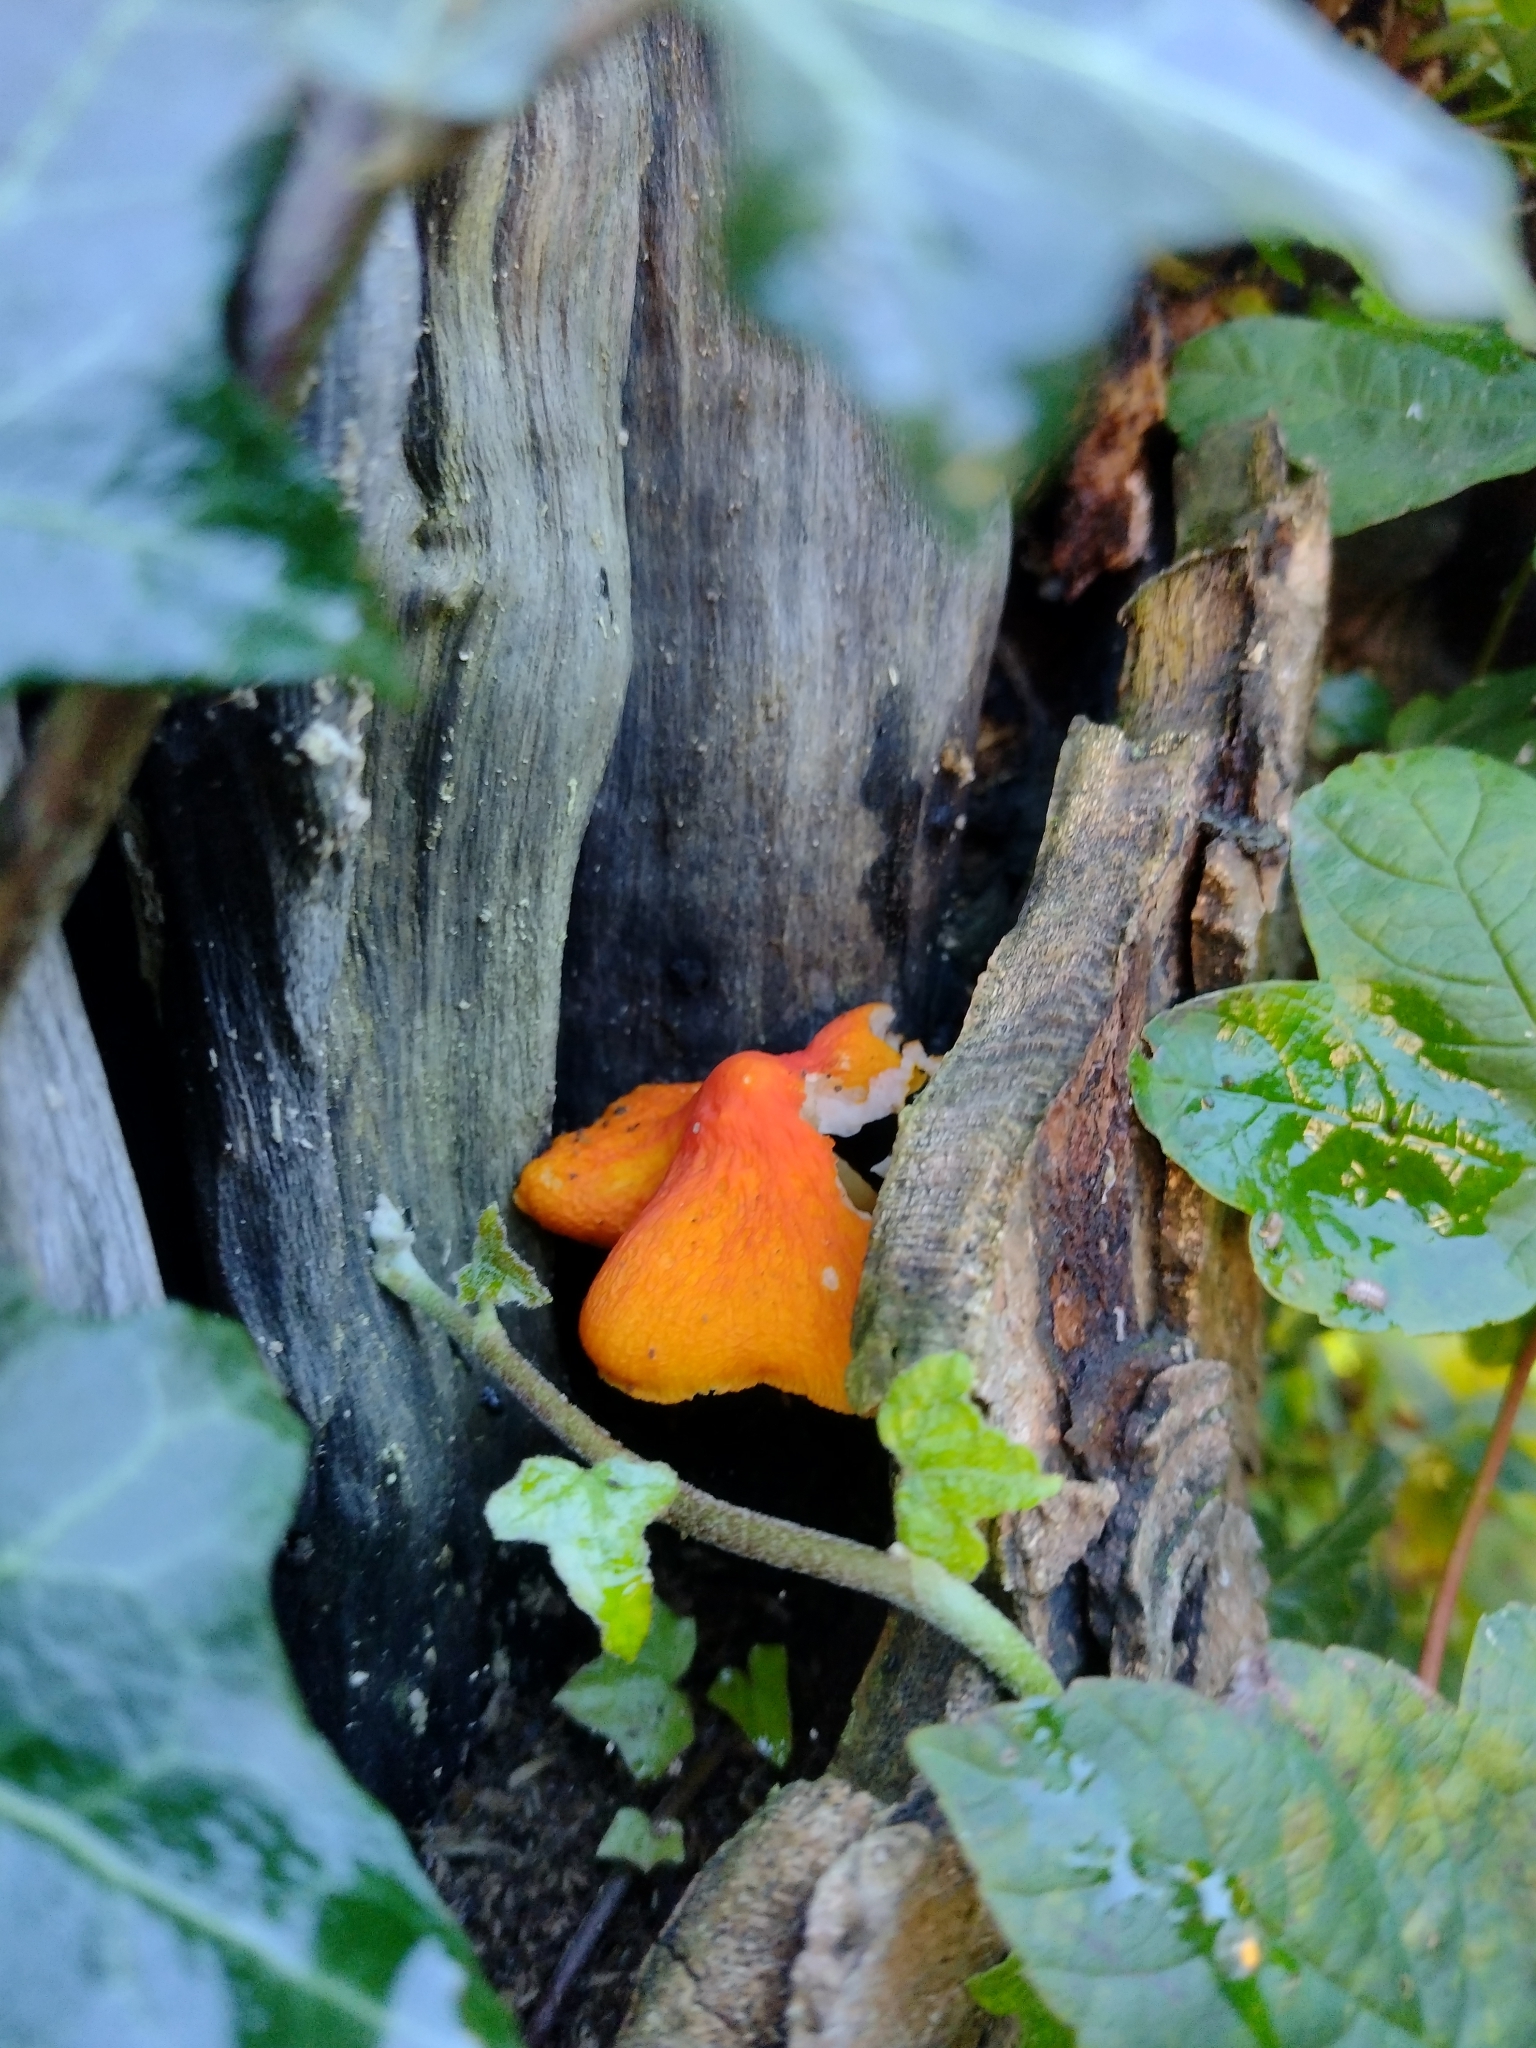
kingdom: Fungi
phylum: Basidiomycota
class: Agaricomycetes
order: Agaricales
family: Pluteaceae
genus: Pluteus
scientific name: Pluteus aurantiorugosus
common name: Flame shield
